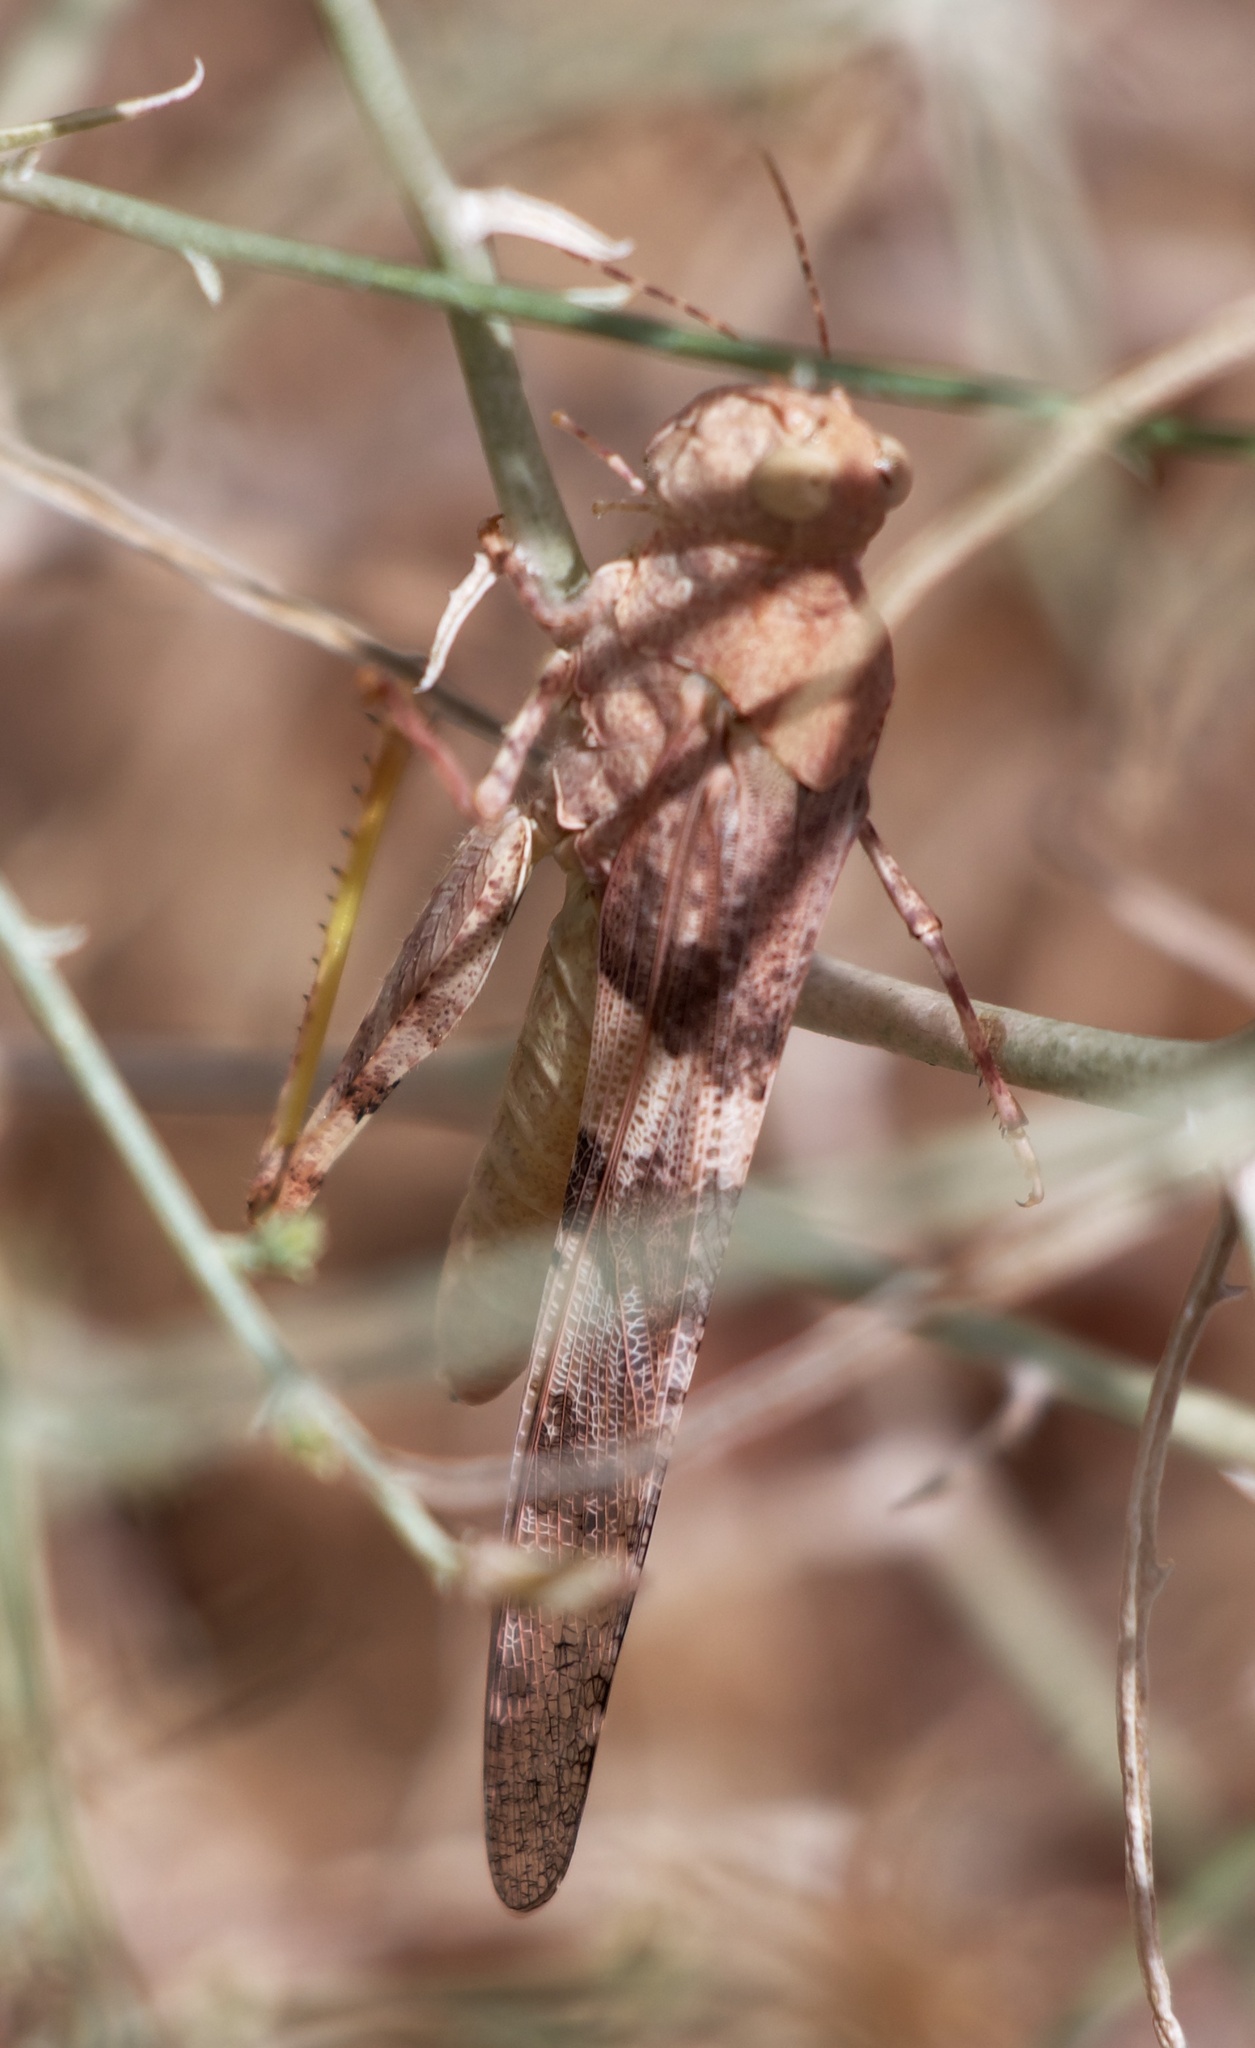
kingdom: Animalia
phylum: Arthropoda
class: Insecta
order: Orthoptera
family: Acrididae
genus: Trimerotropis
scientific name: Trimerotropis pallidipennis
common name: Pallid-winged grasshopper
